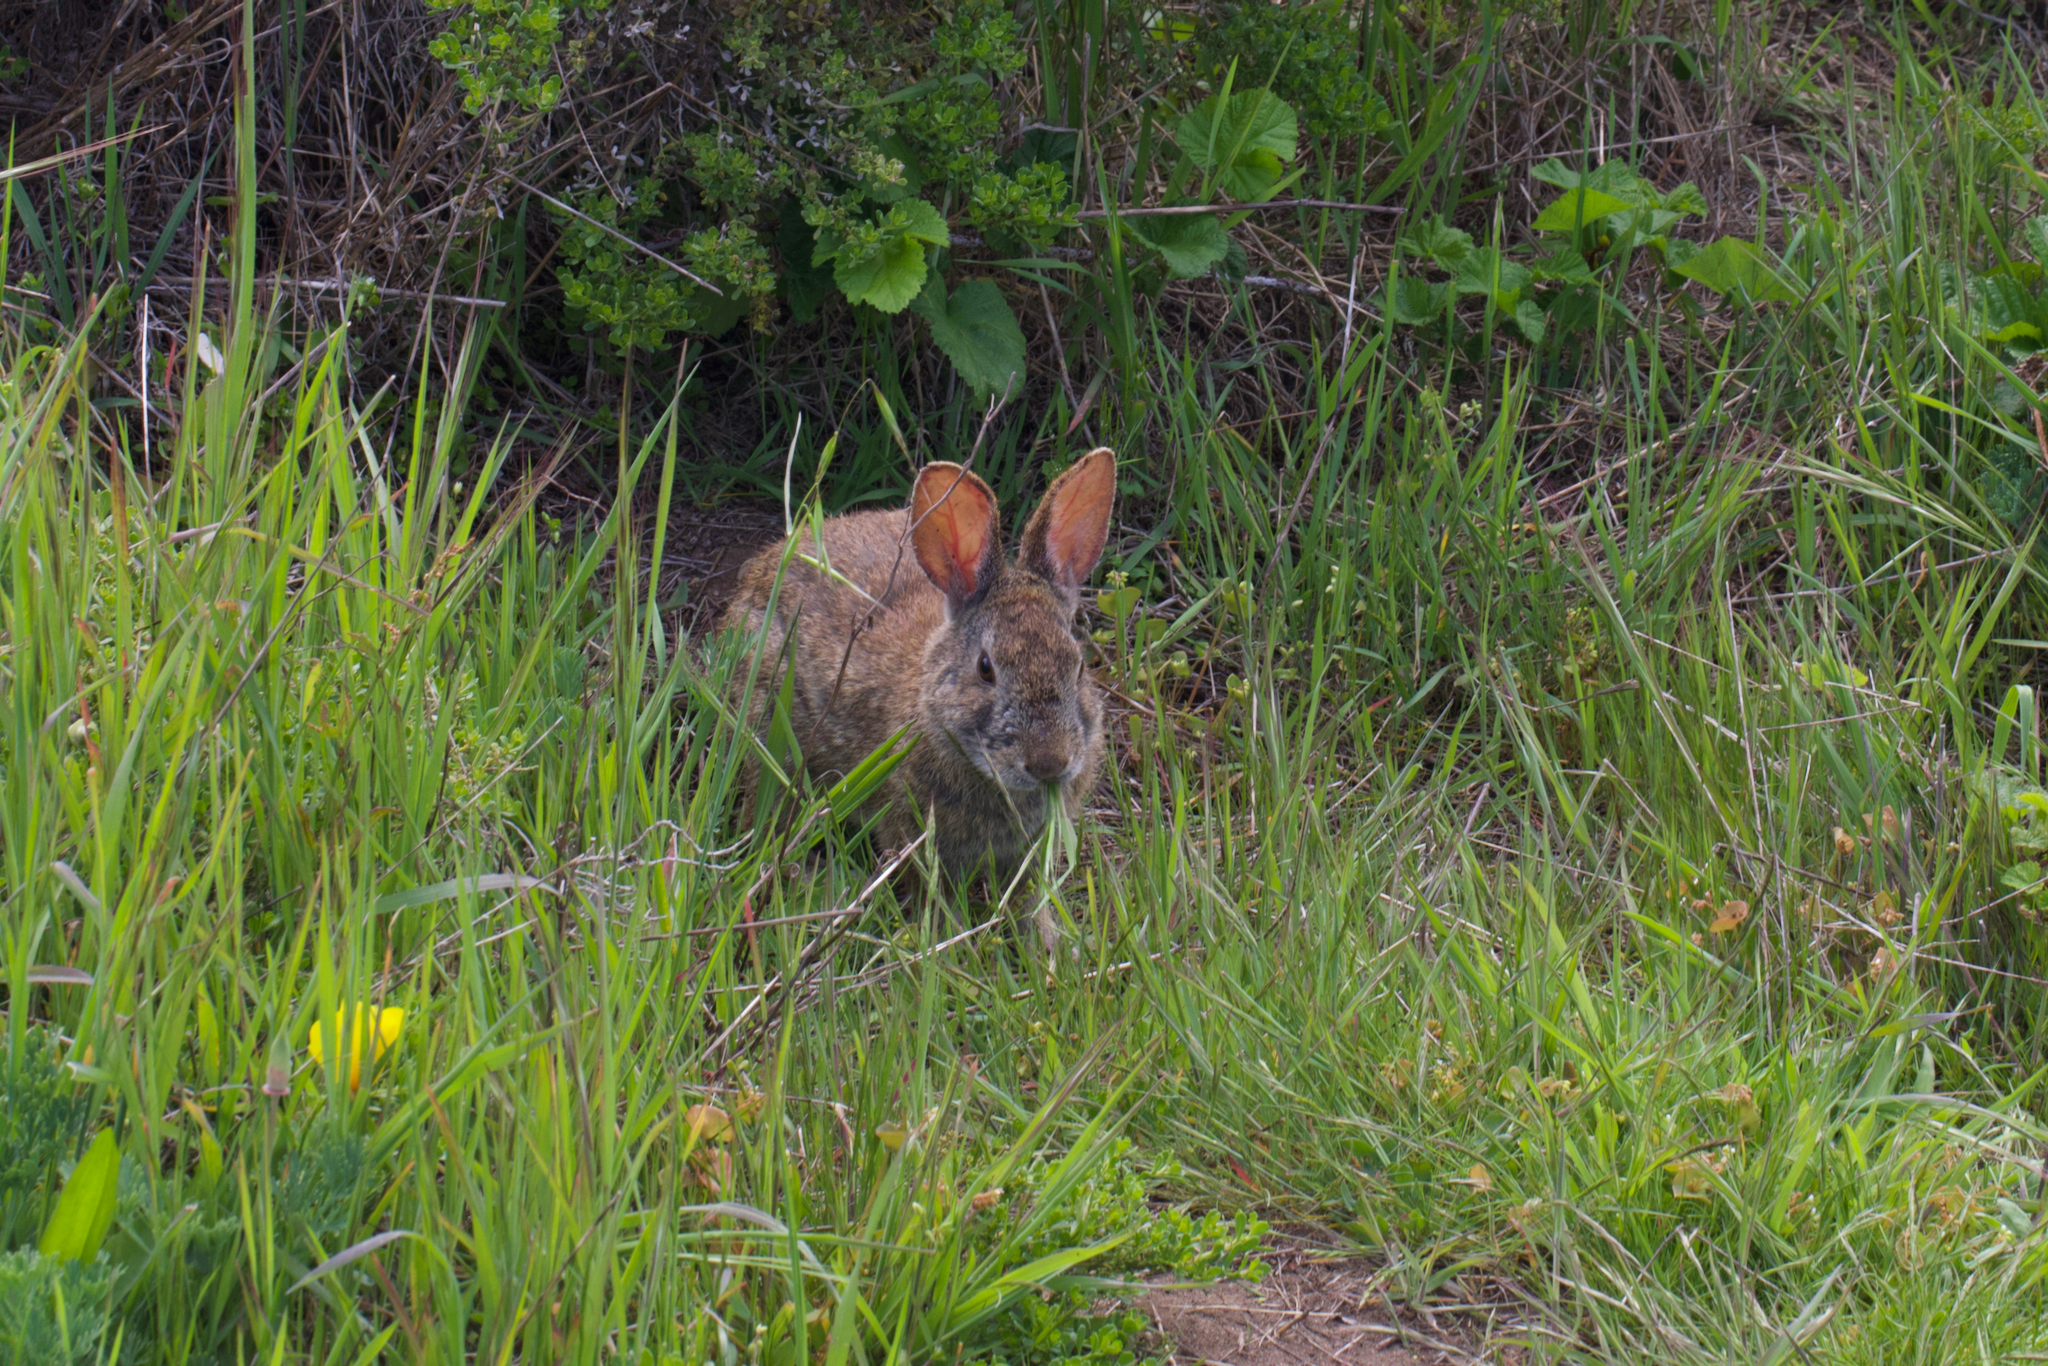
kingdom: Animalia
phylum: Chordata
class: Mammalia
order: Lagomorpha
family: Leporidae
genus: Sylvilagus
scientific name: Sylvilagus bachmani
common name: Brush rabbit
